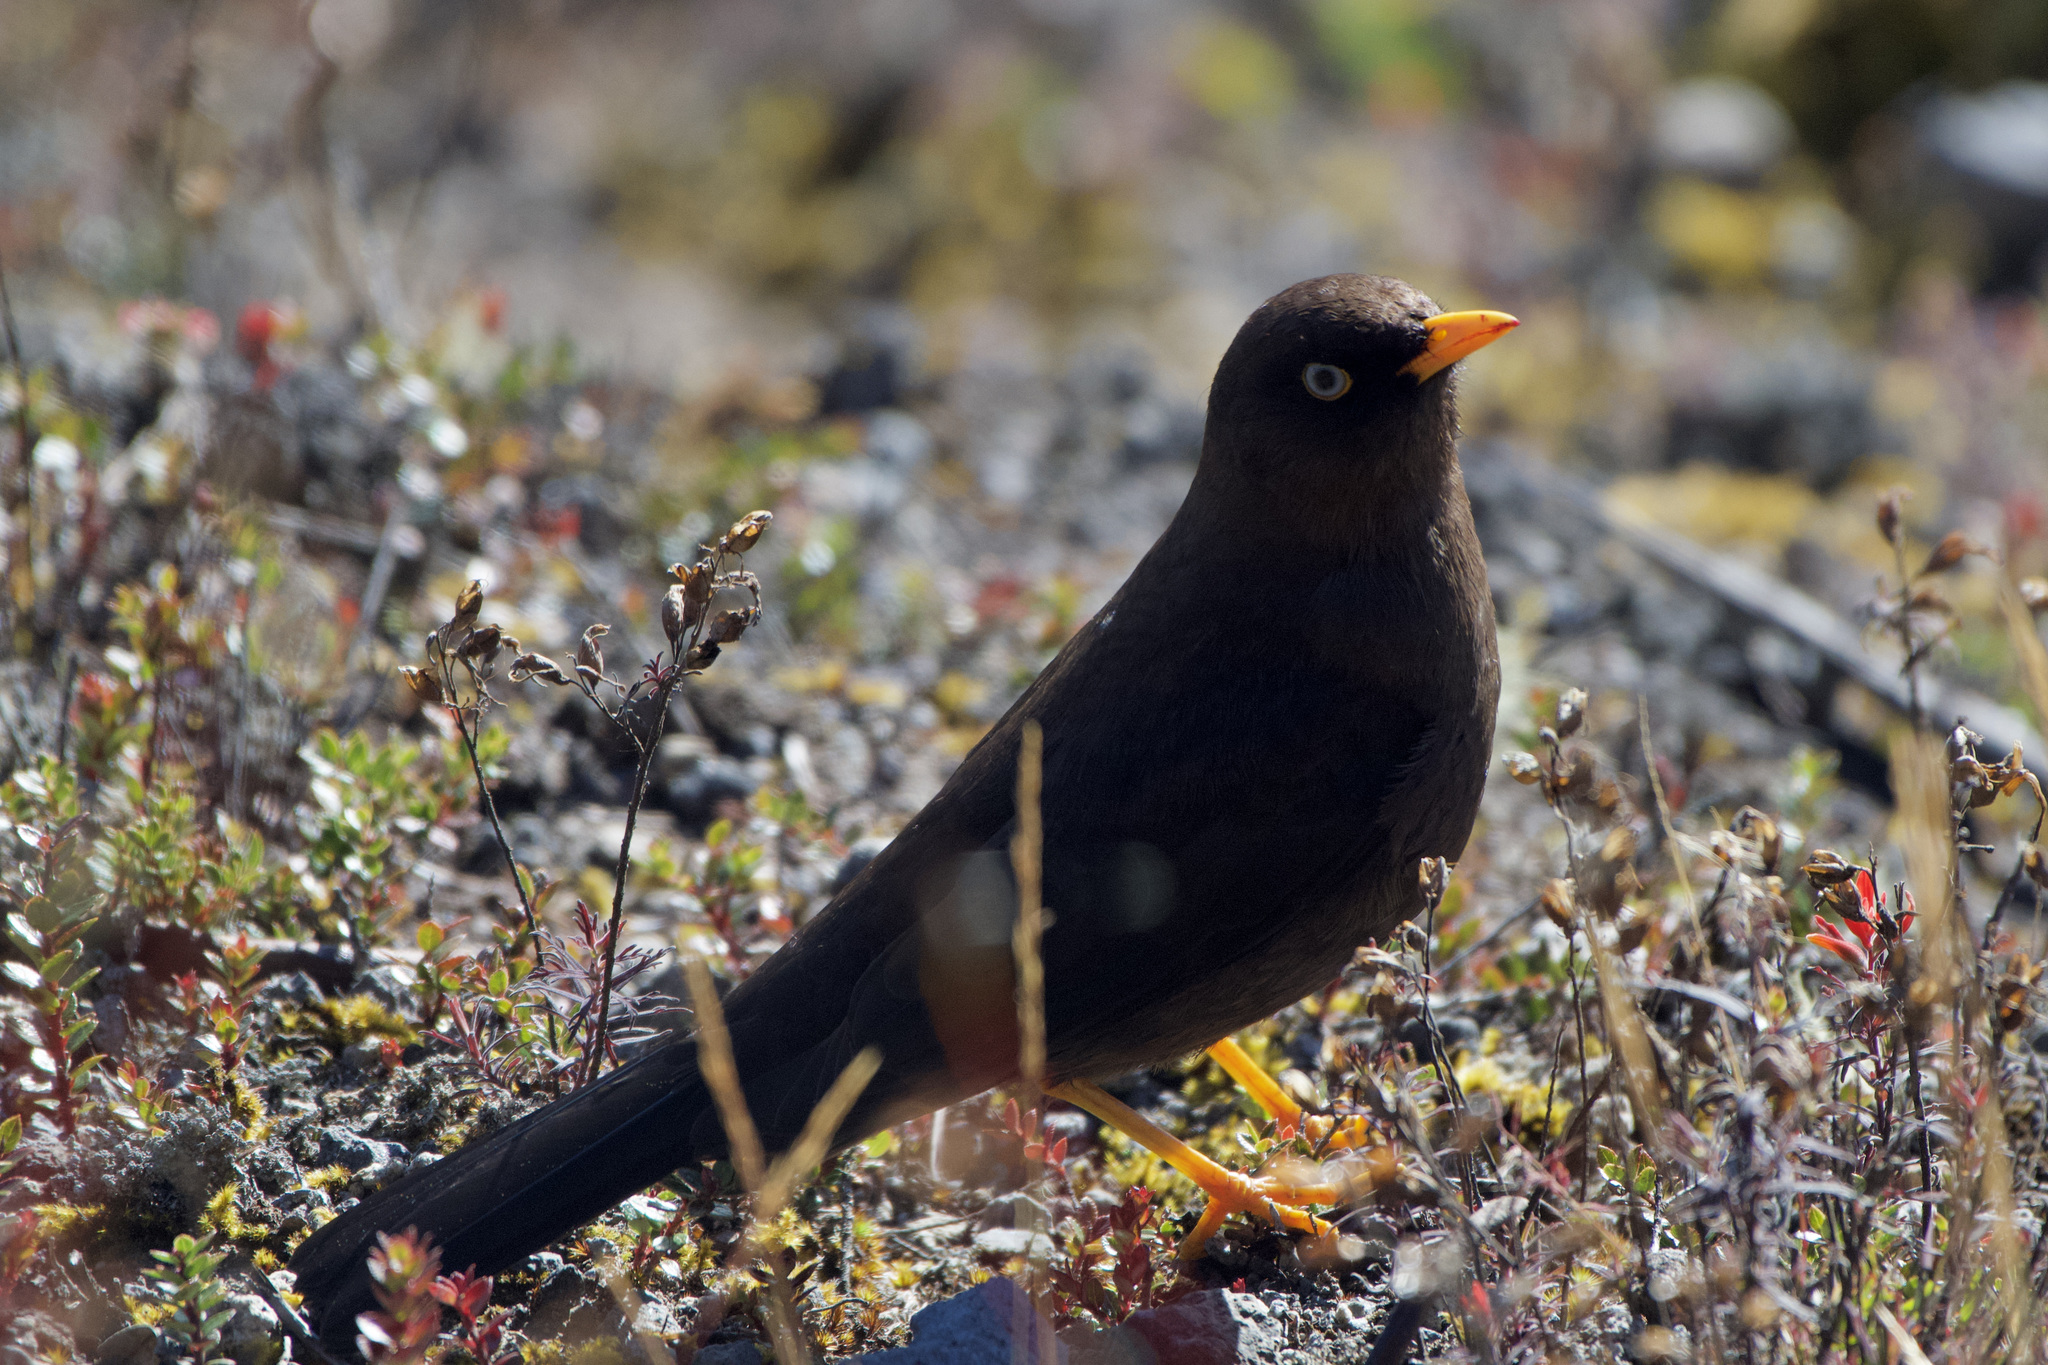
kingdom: Animalia
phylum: Chordata
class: Aves
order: Passeriformes
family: Turdidae
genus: Turdus
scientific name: Turdus nigrescens
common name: Sooty thrush
